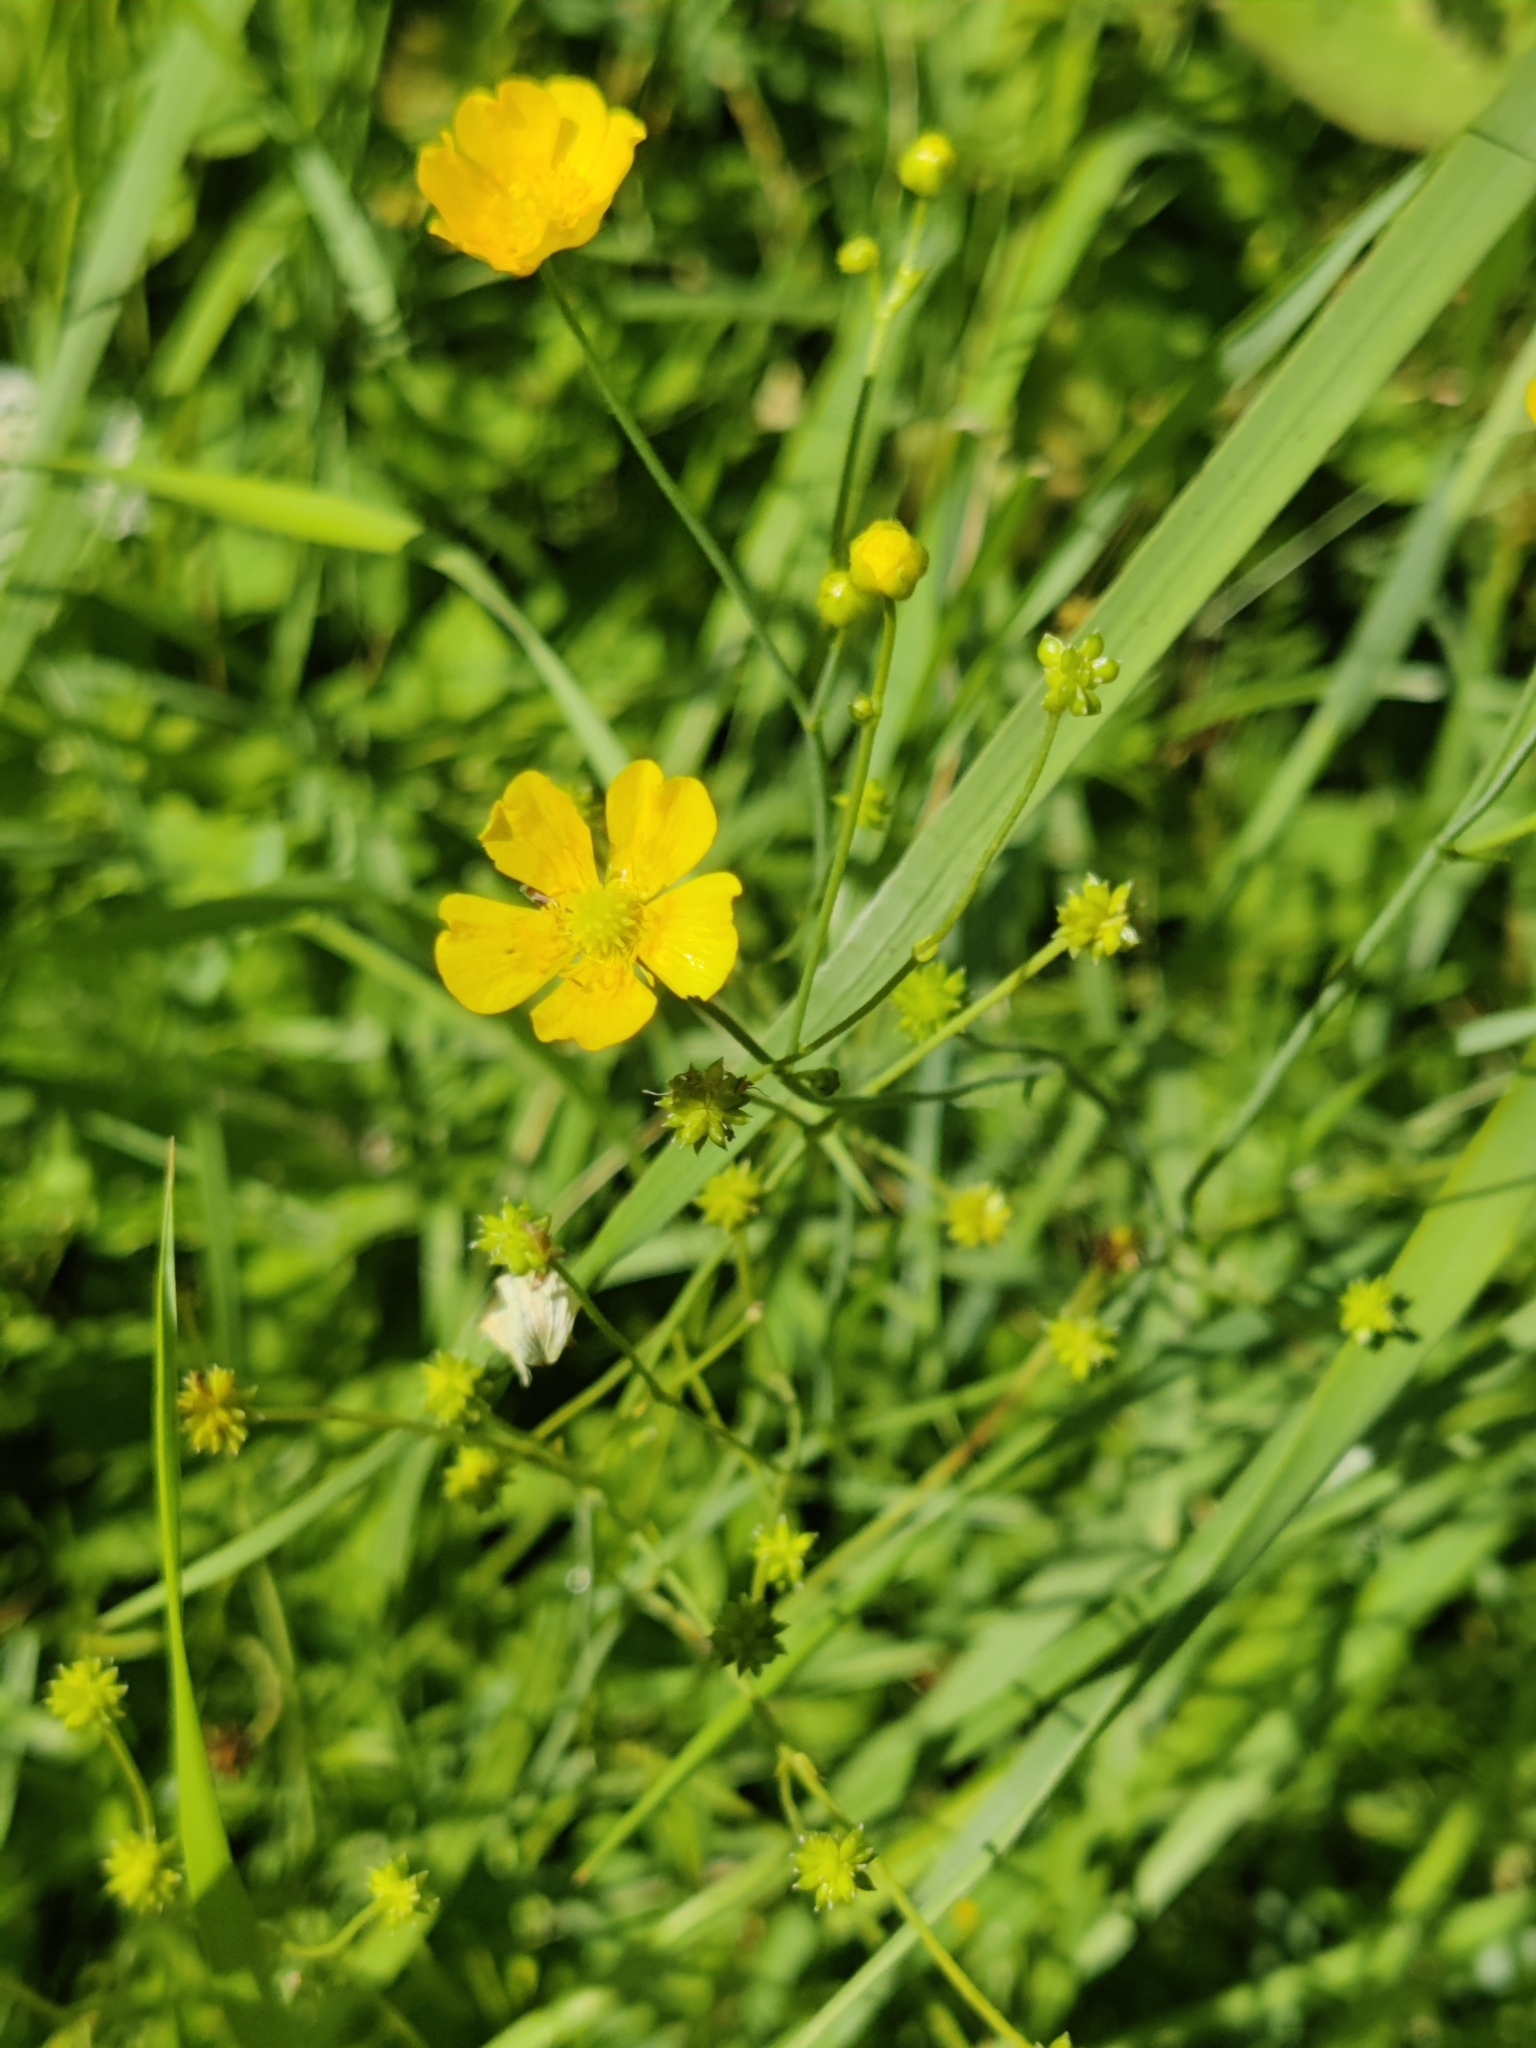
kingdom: Plantae
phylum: Tracheophyta
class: Magnoliopsida
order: Ranunculales
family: Ranunculaceae
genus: Ranunculus
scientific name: Ranunculus acris
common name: Meadow buttercup
